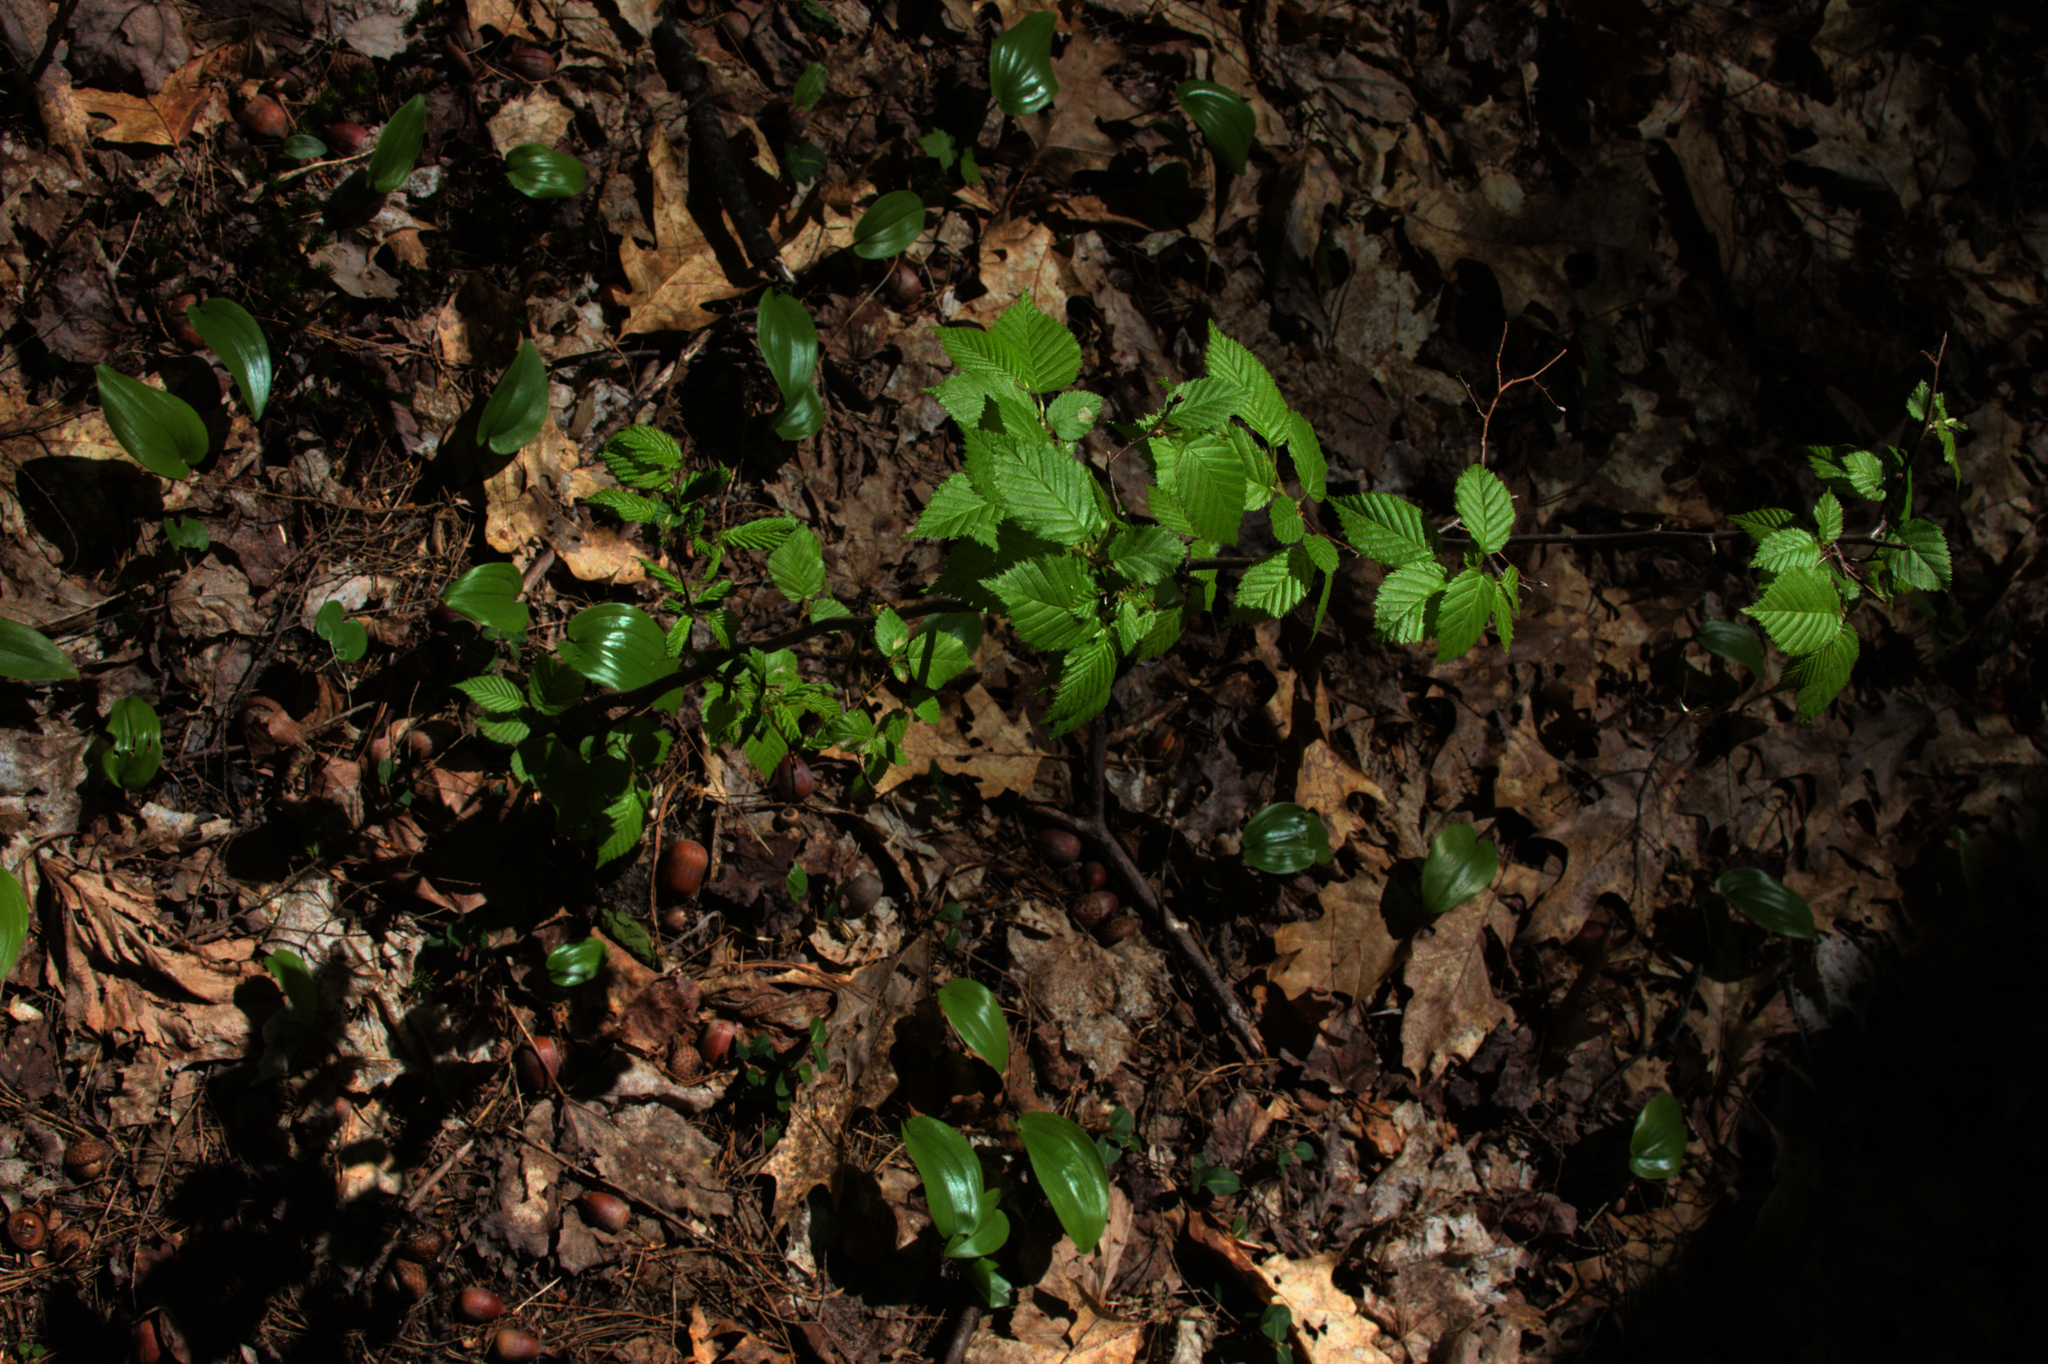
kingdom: Plantae
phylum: Tracheophyta
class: Liliopsida
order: Asparagales
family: Asparagaceae
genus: Maianthemum
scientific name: Maianthemum canadense
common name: False lily-of-the-valley
